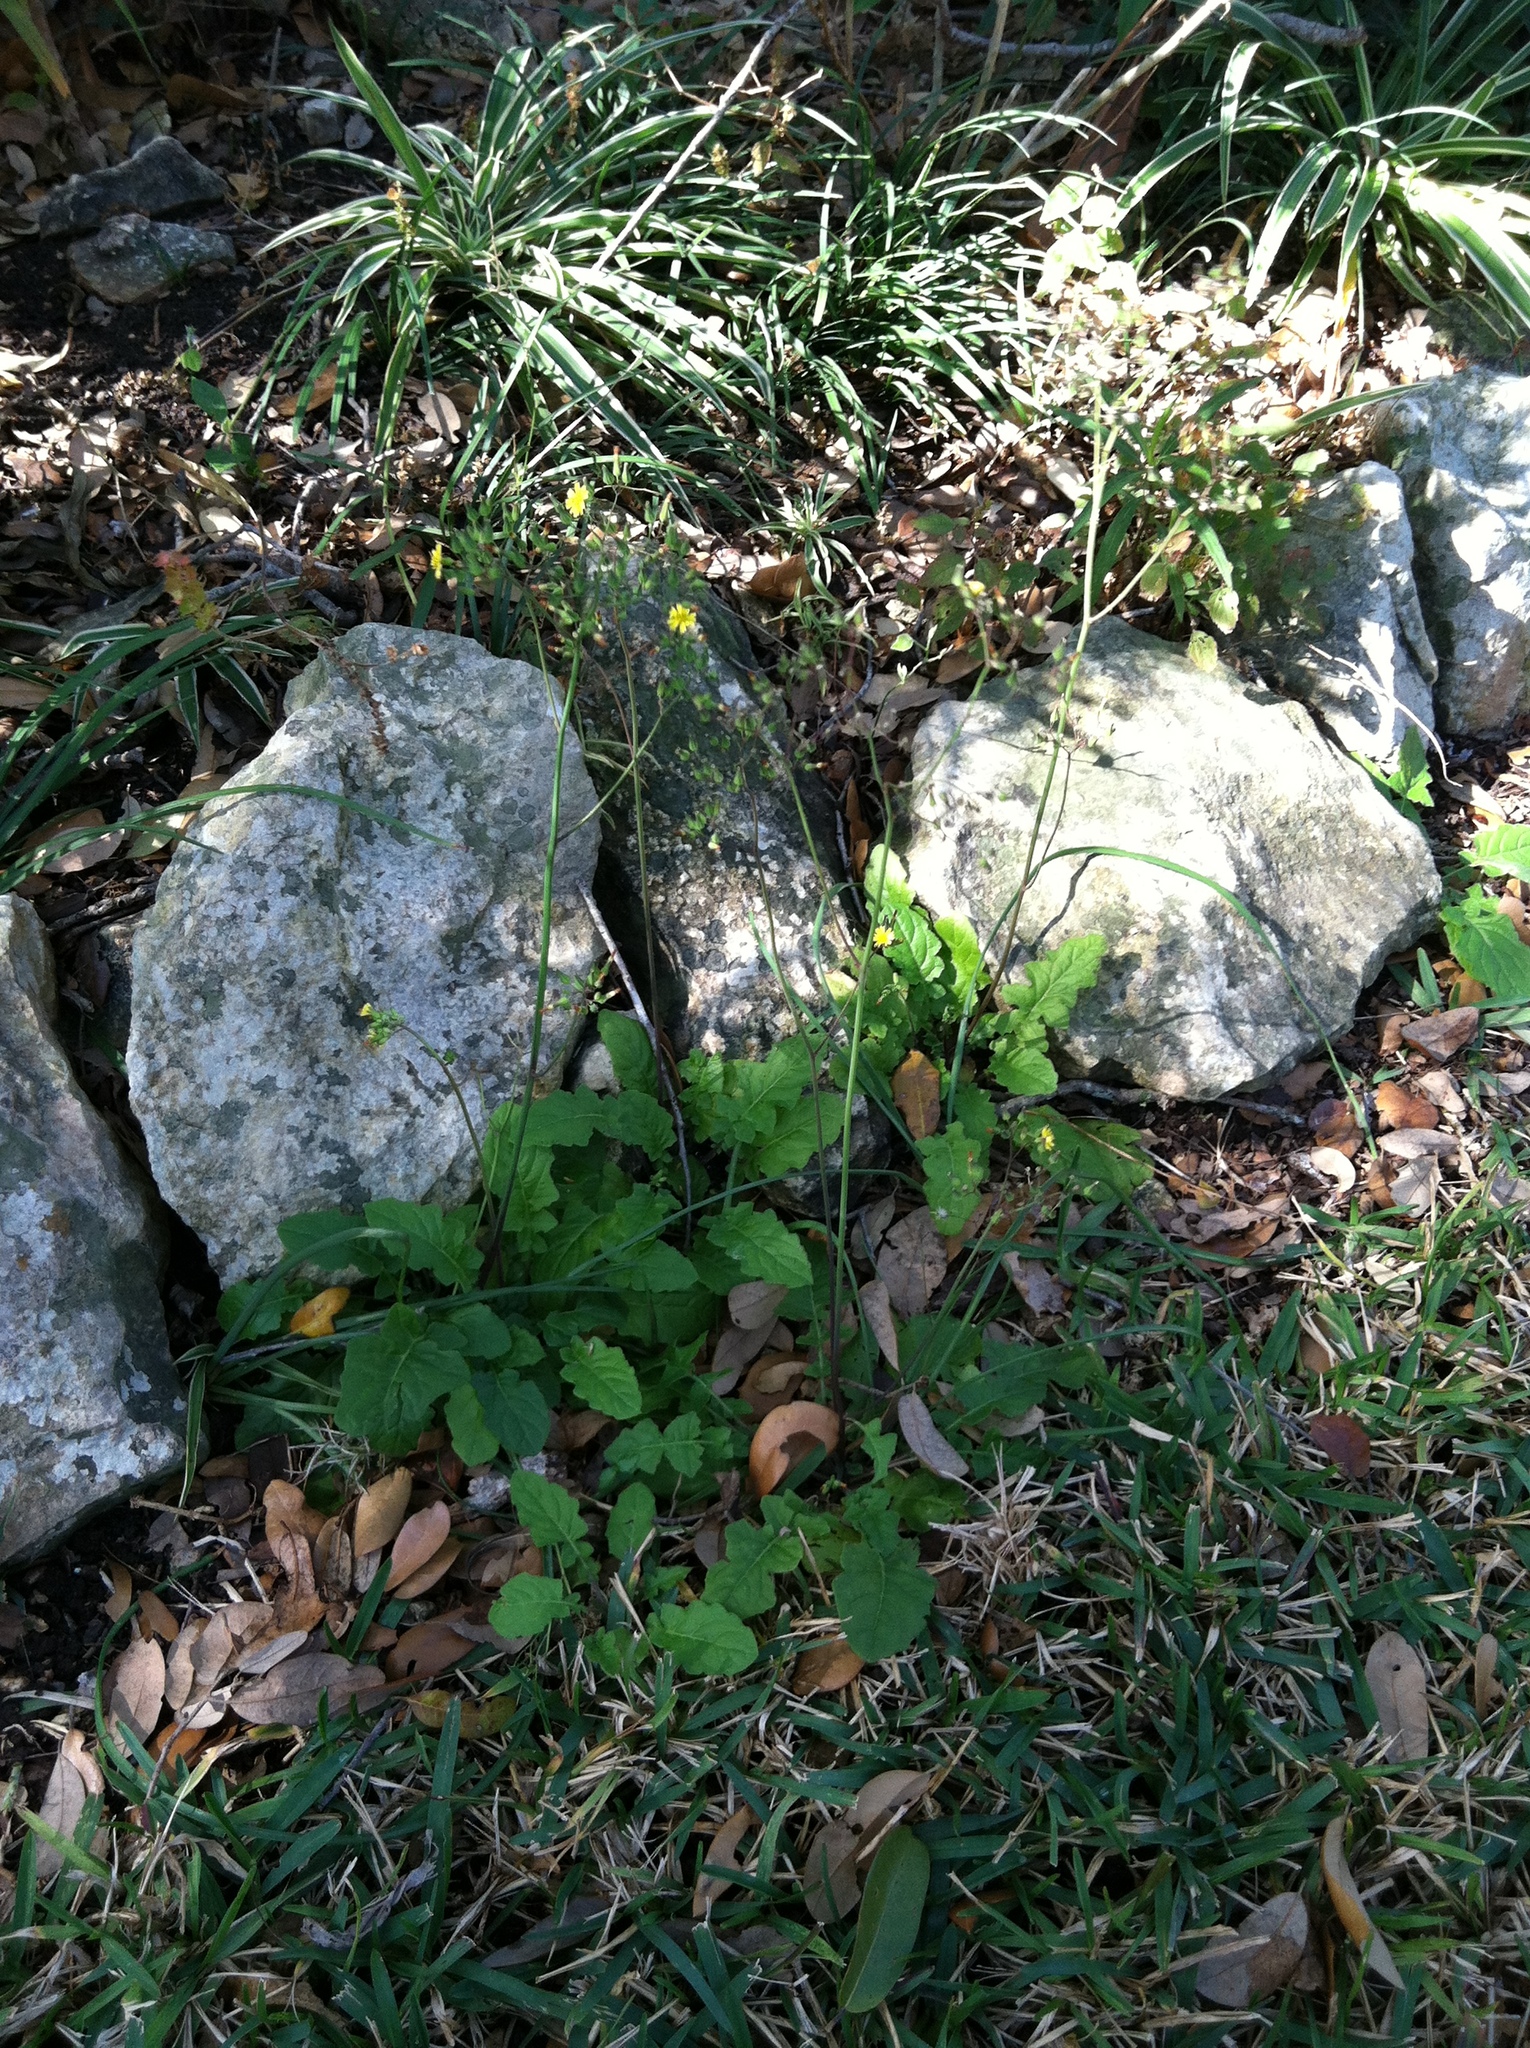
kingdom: Plantae
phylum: Tracheophyta
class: Magnoliopsida
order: Asterales
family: Asteraceae
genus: Youngia
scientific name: Youngia japonica
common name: Oriental false hawksbeard
